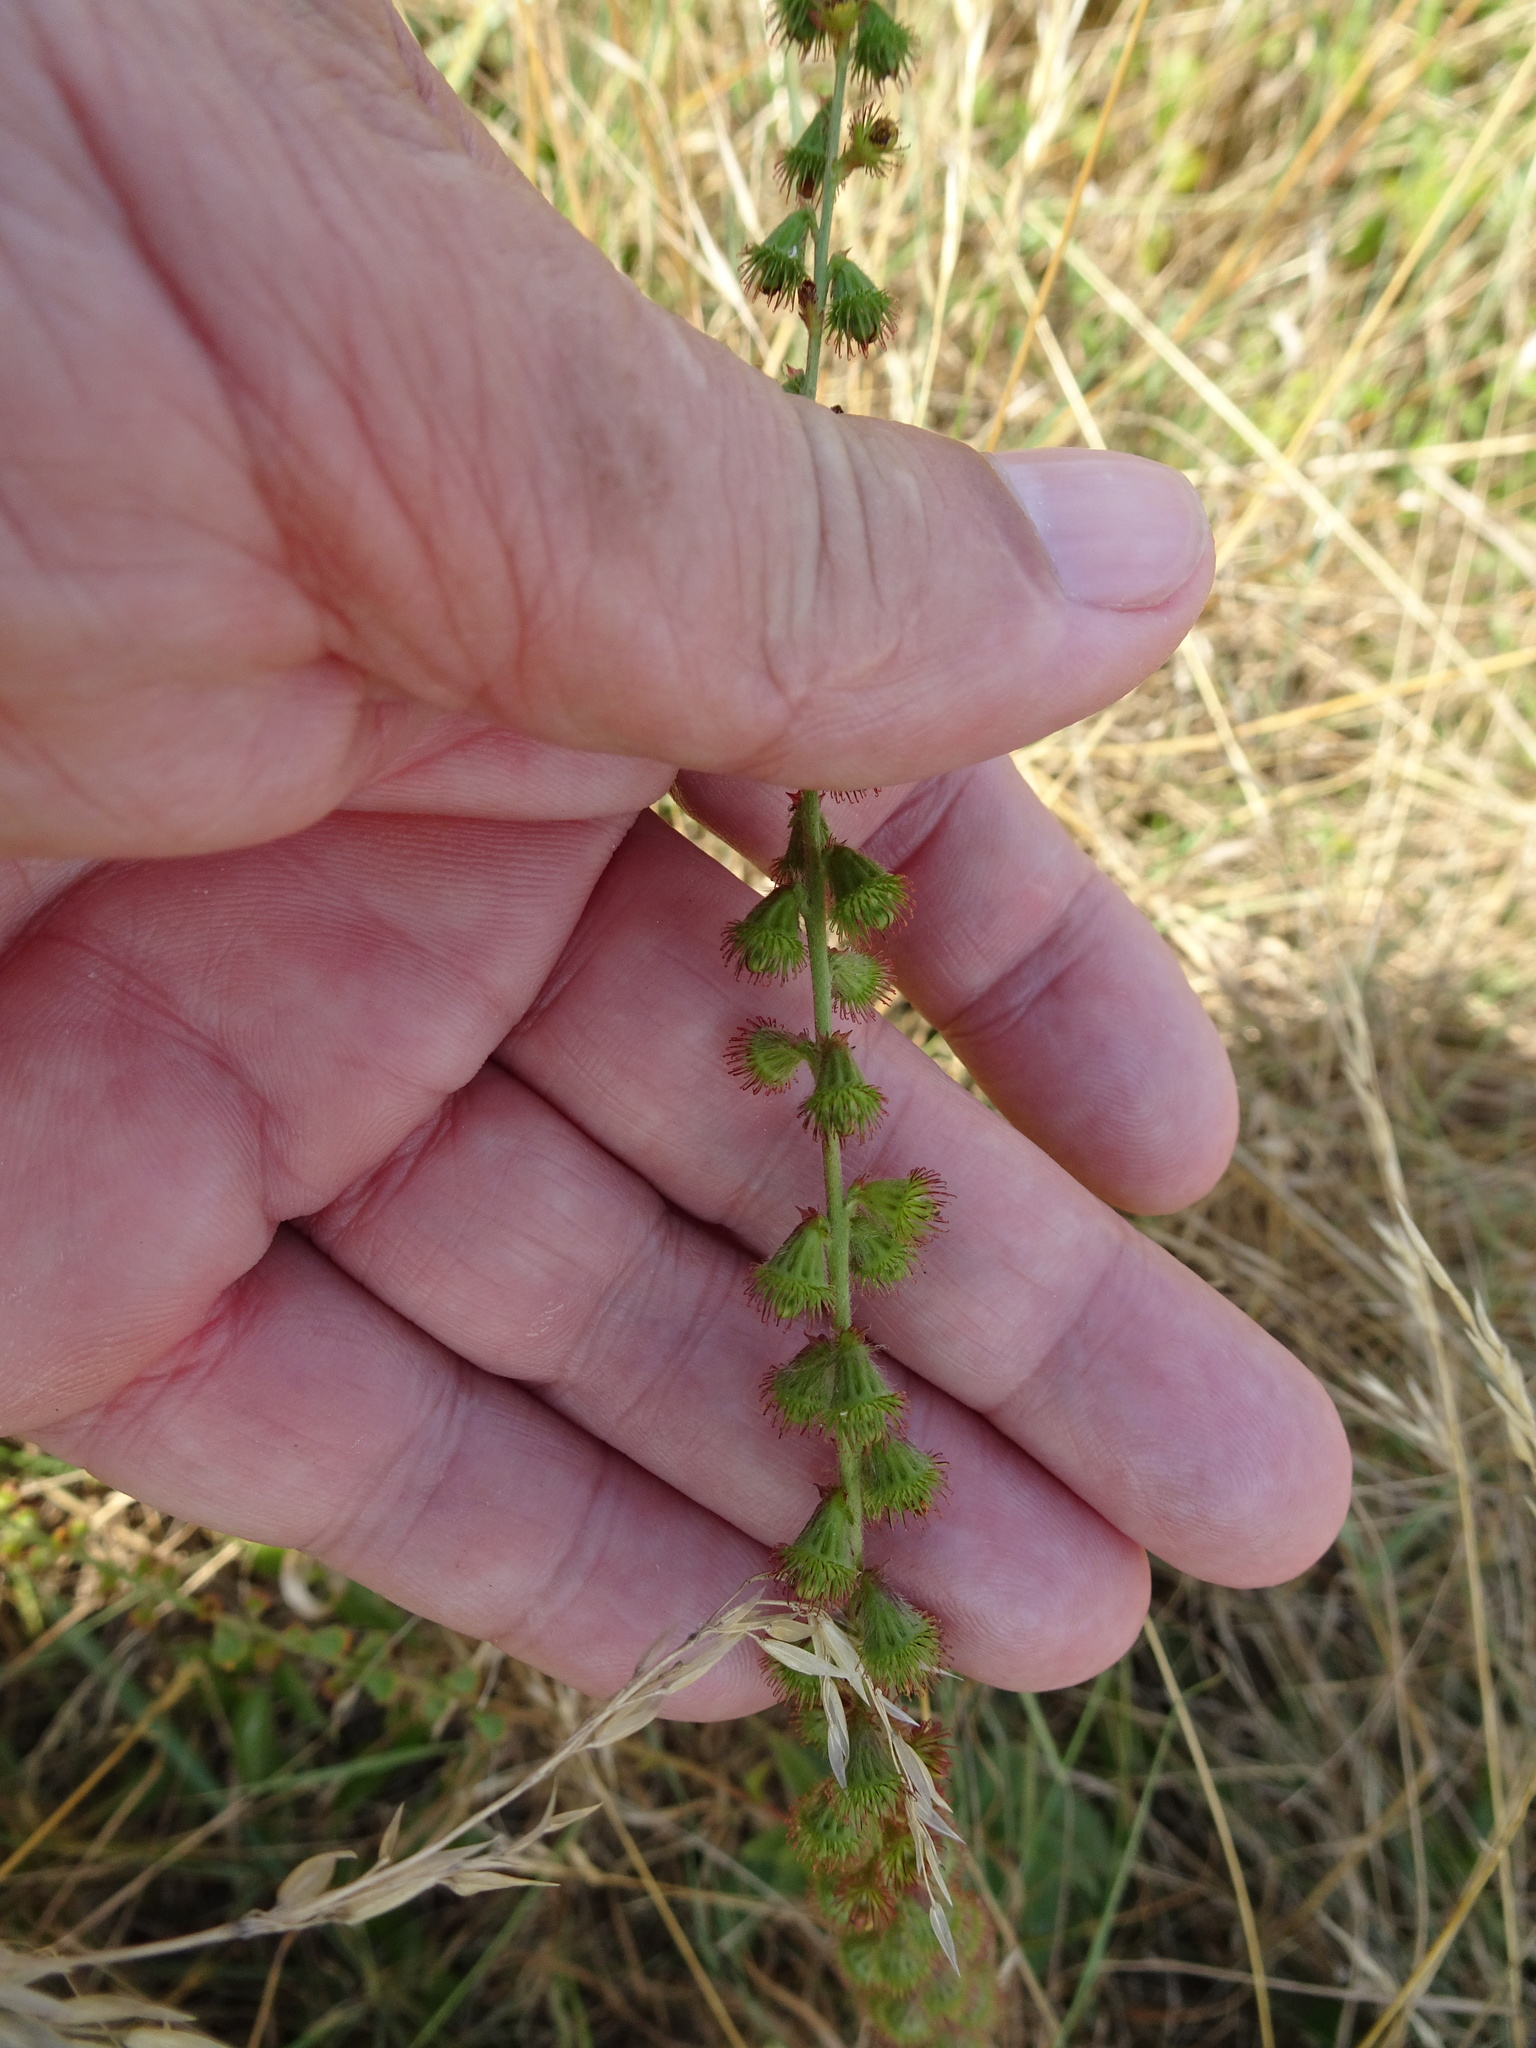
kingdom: Plantae
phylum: Tracheophyta
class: Magnoliopsida
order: Rosales
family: Rosaceae
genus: Agrimonia
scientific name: Agrimonia eupatoria
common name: Agrimony
